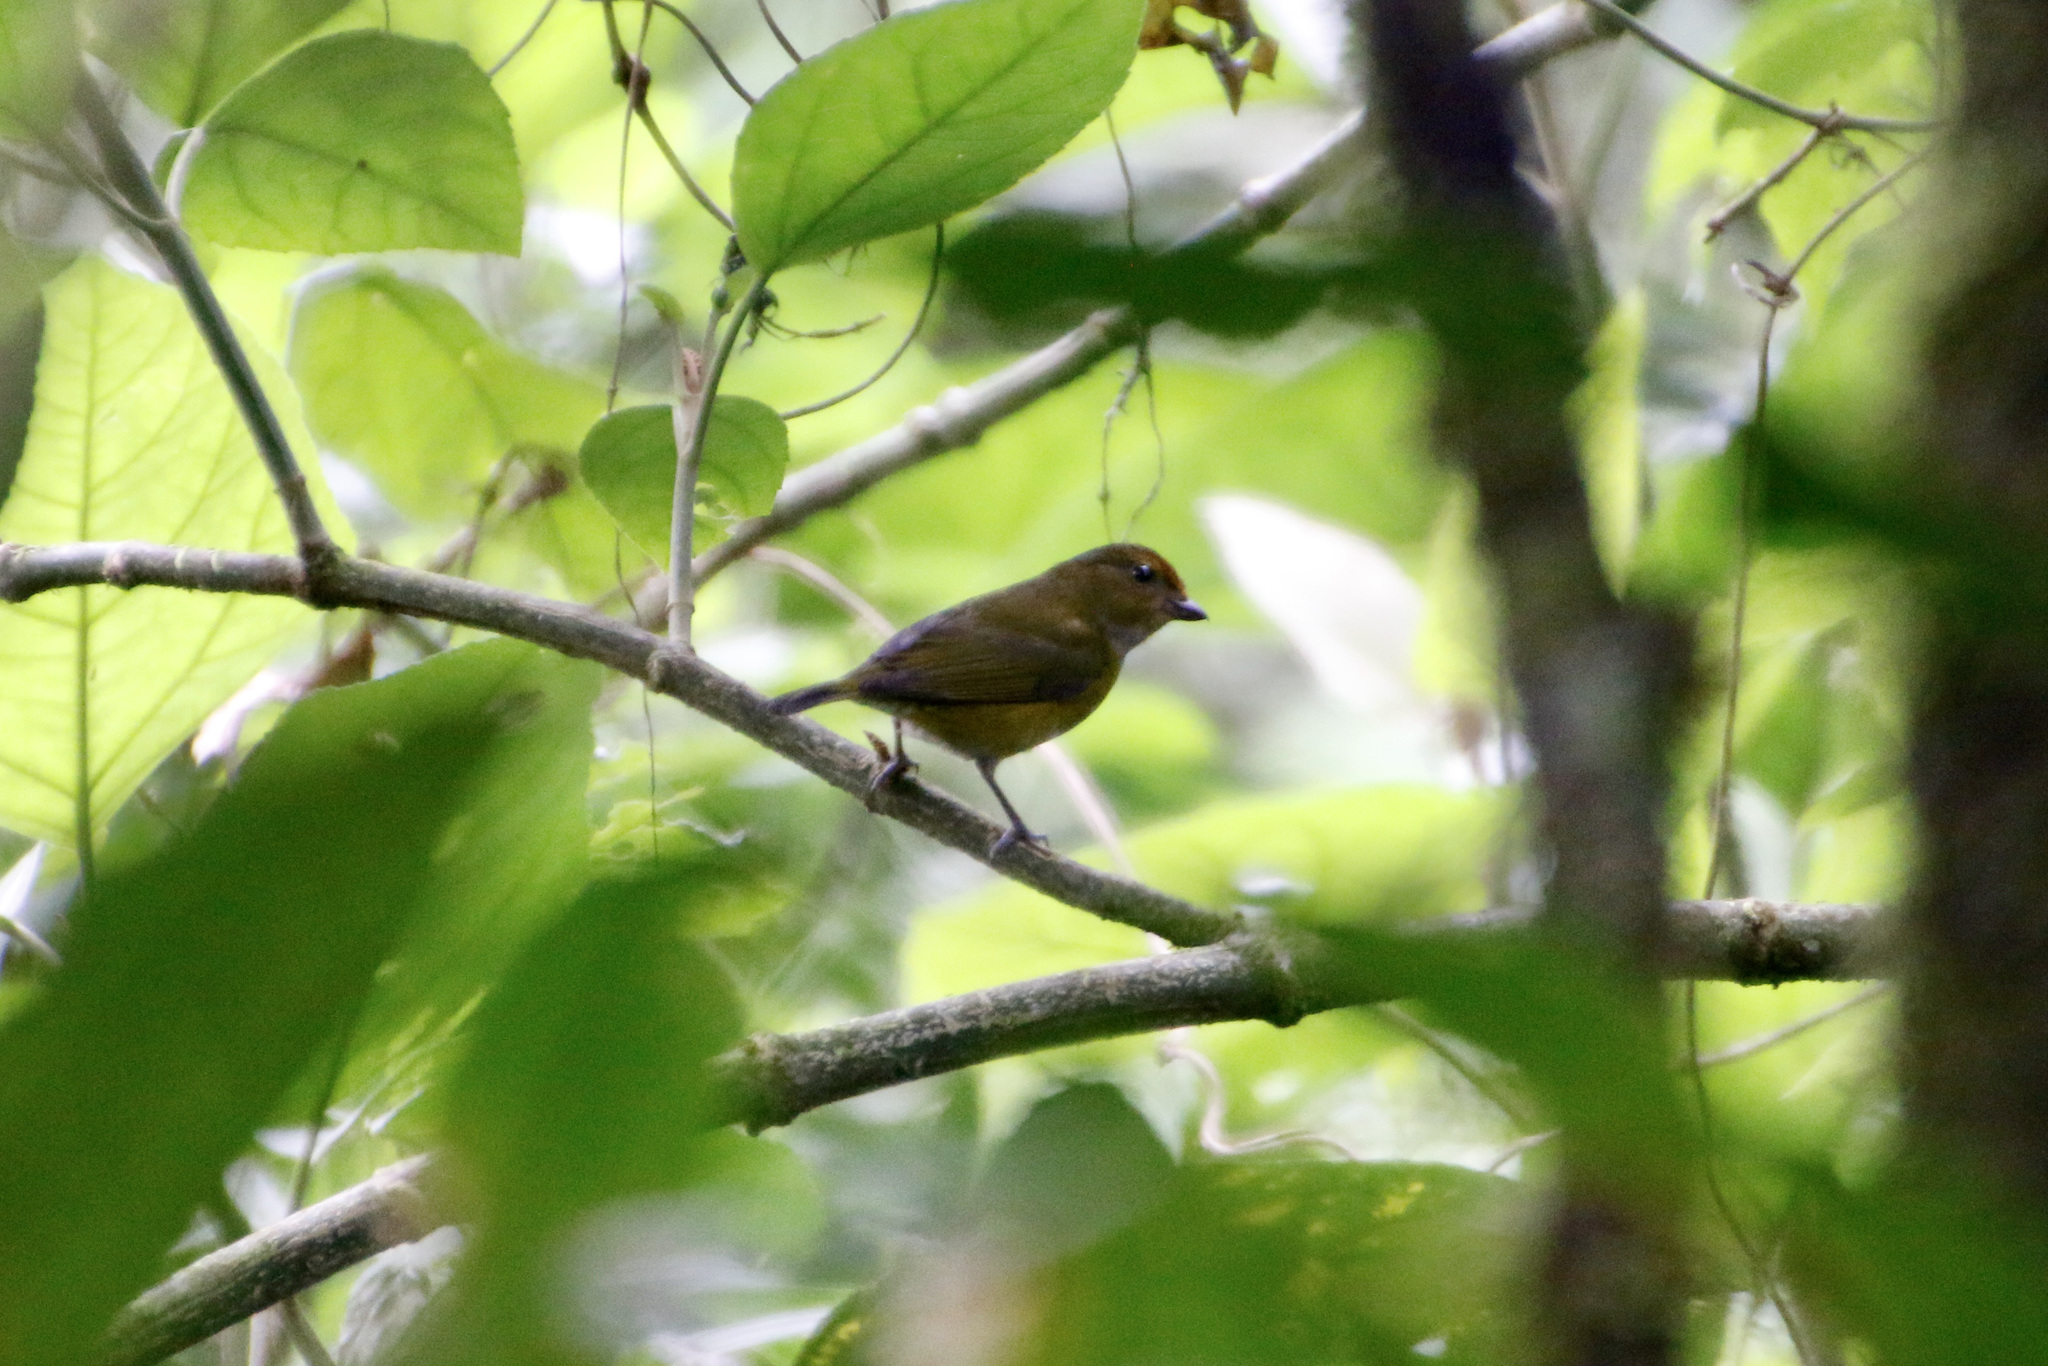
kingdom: Animalia
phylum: Chordata
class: Aves
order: Passeriformes
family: Fringillidae
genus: Euphonia
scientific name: Euphonia anneae
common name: Tawny-capped euphonia
